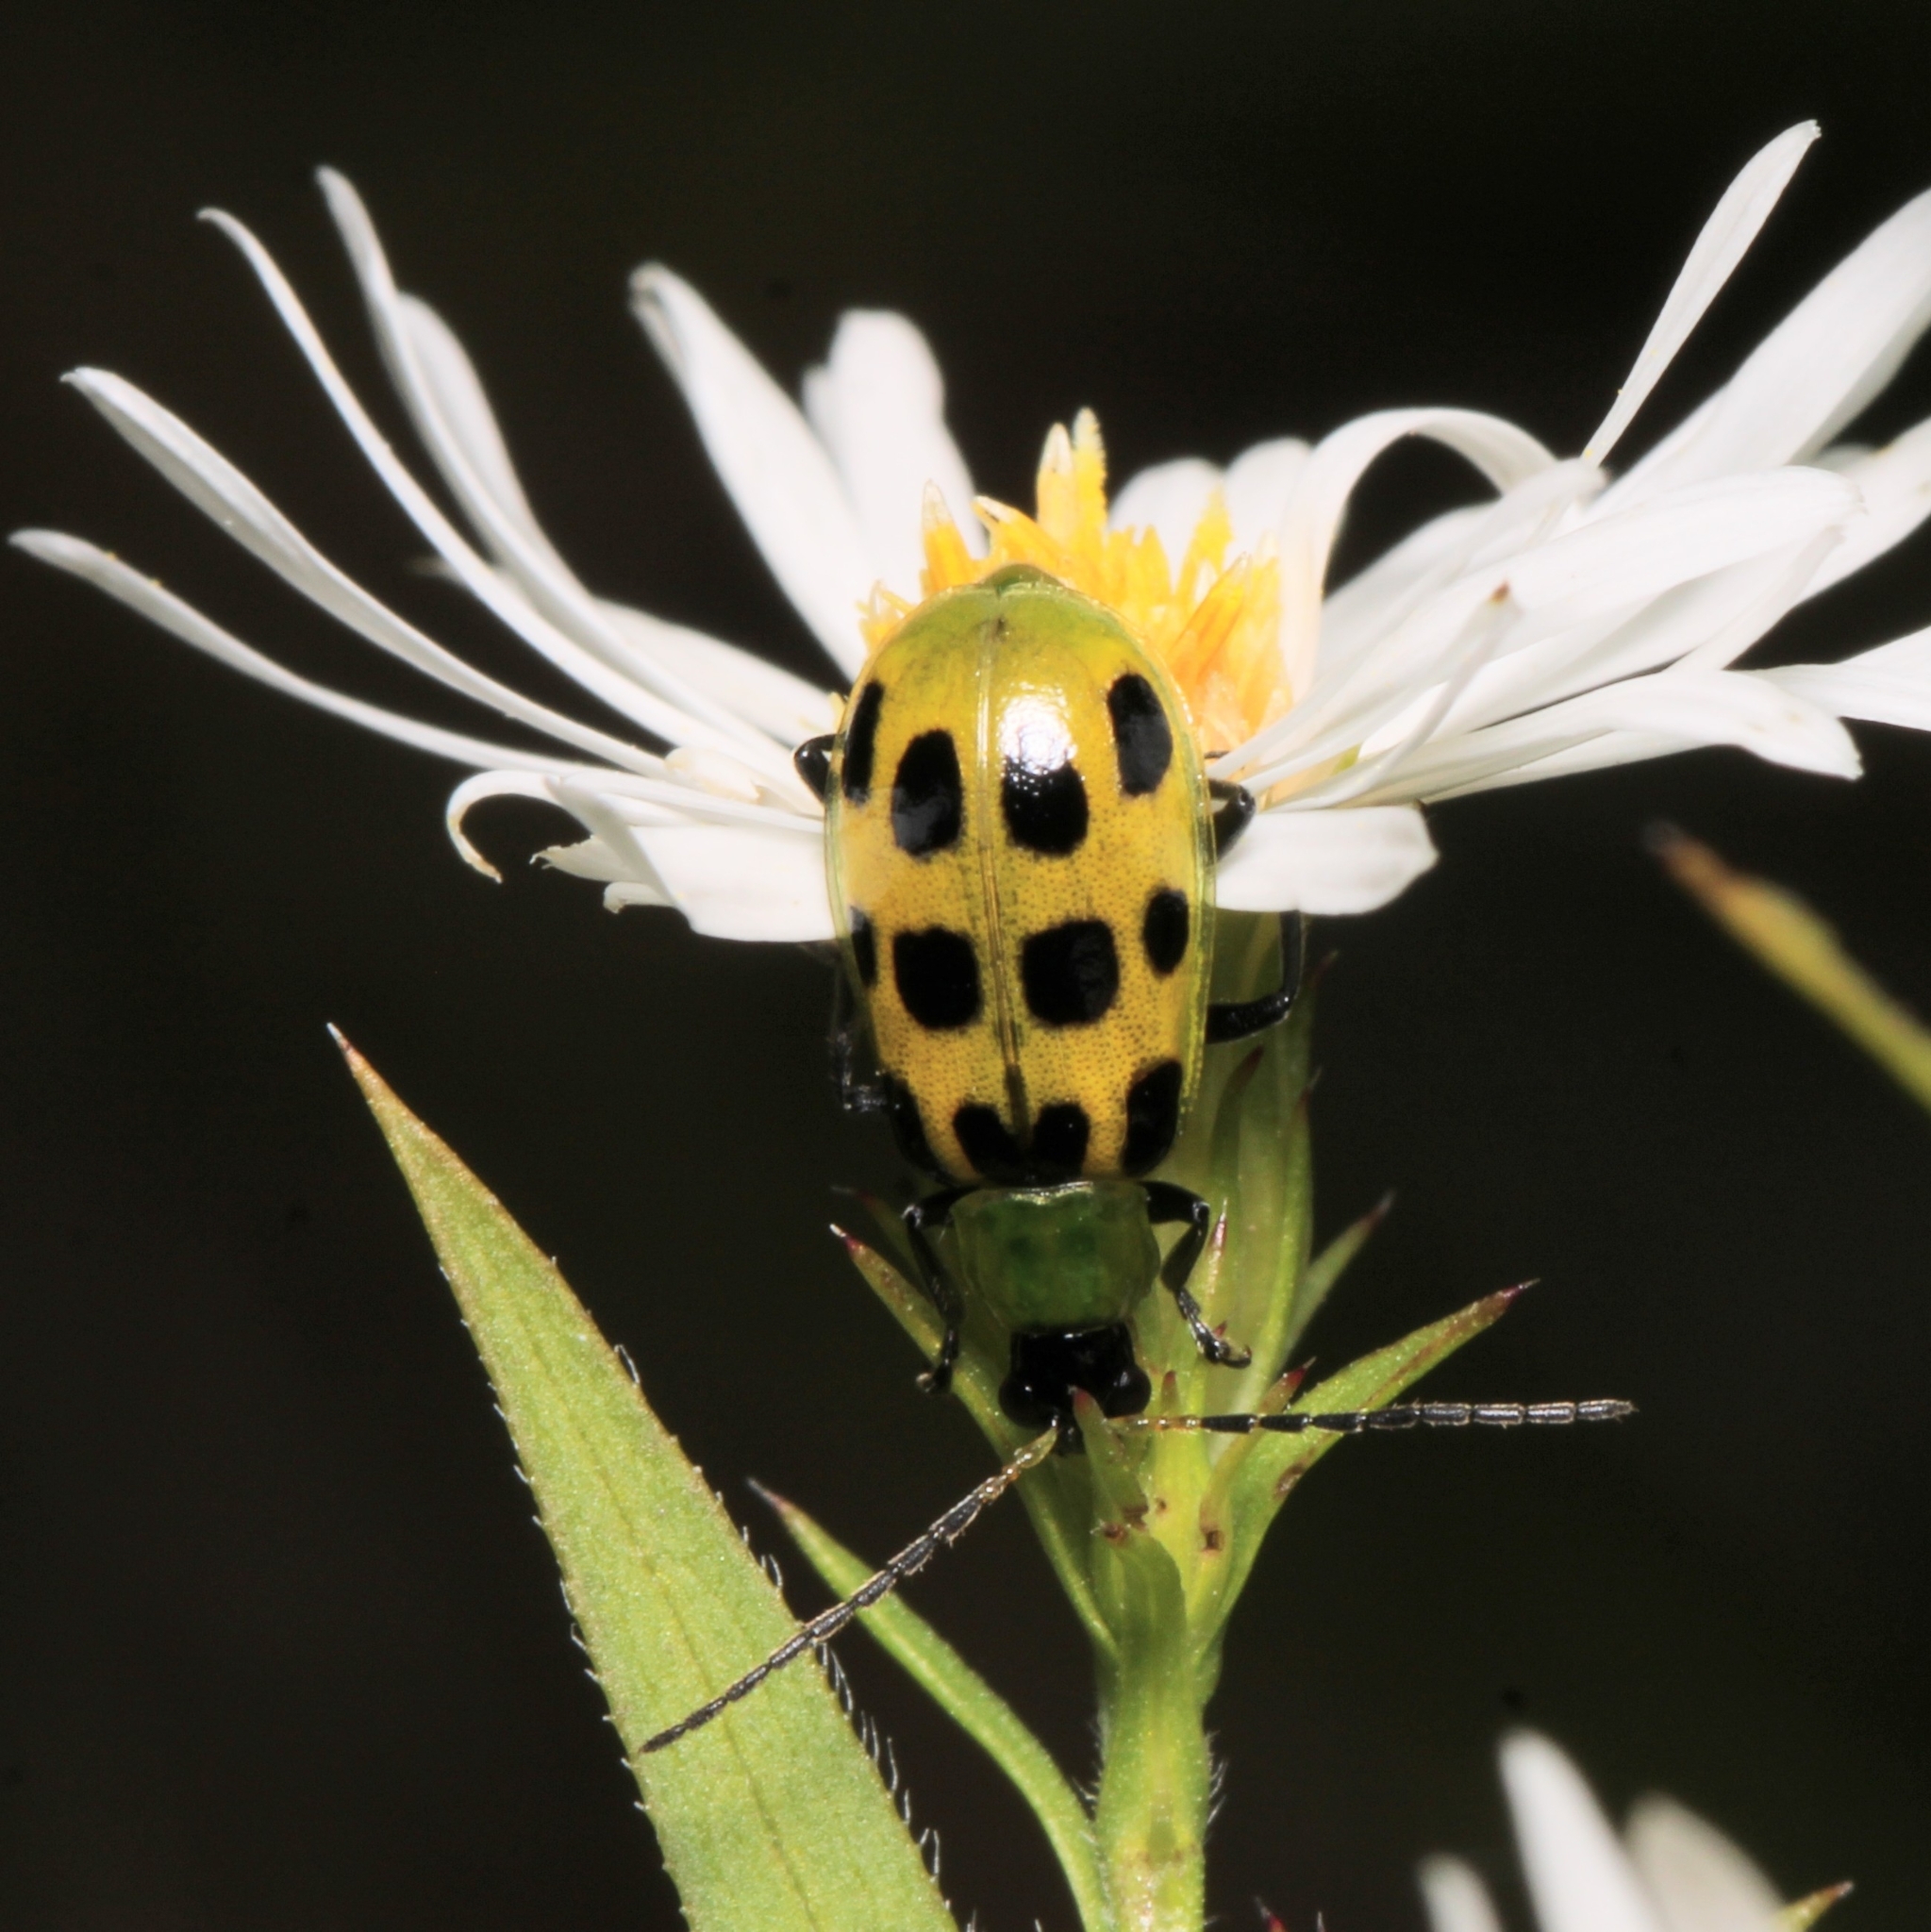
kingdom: Animalia
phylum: Arthropoda
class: Insecta
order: Coleoptera
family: Chrysomelidae
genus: Diabrotica
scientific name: Diabrotica undecimpunctata
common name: Spotted cucumber beetle
